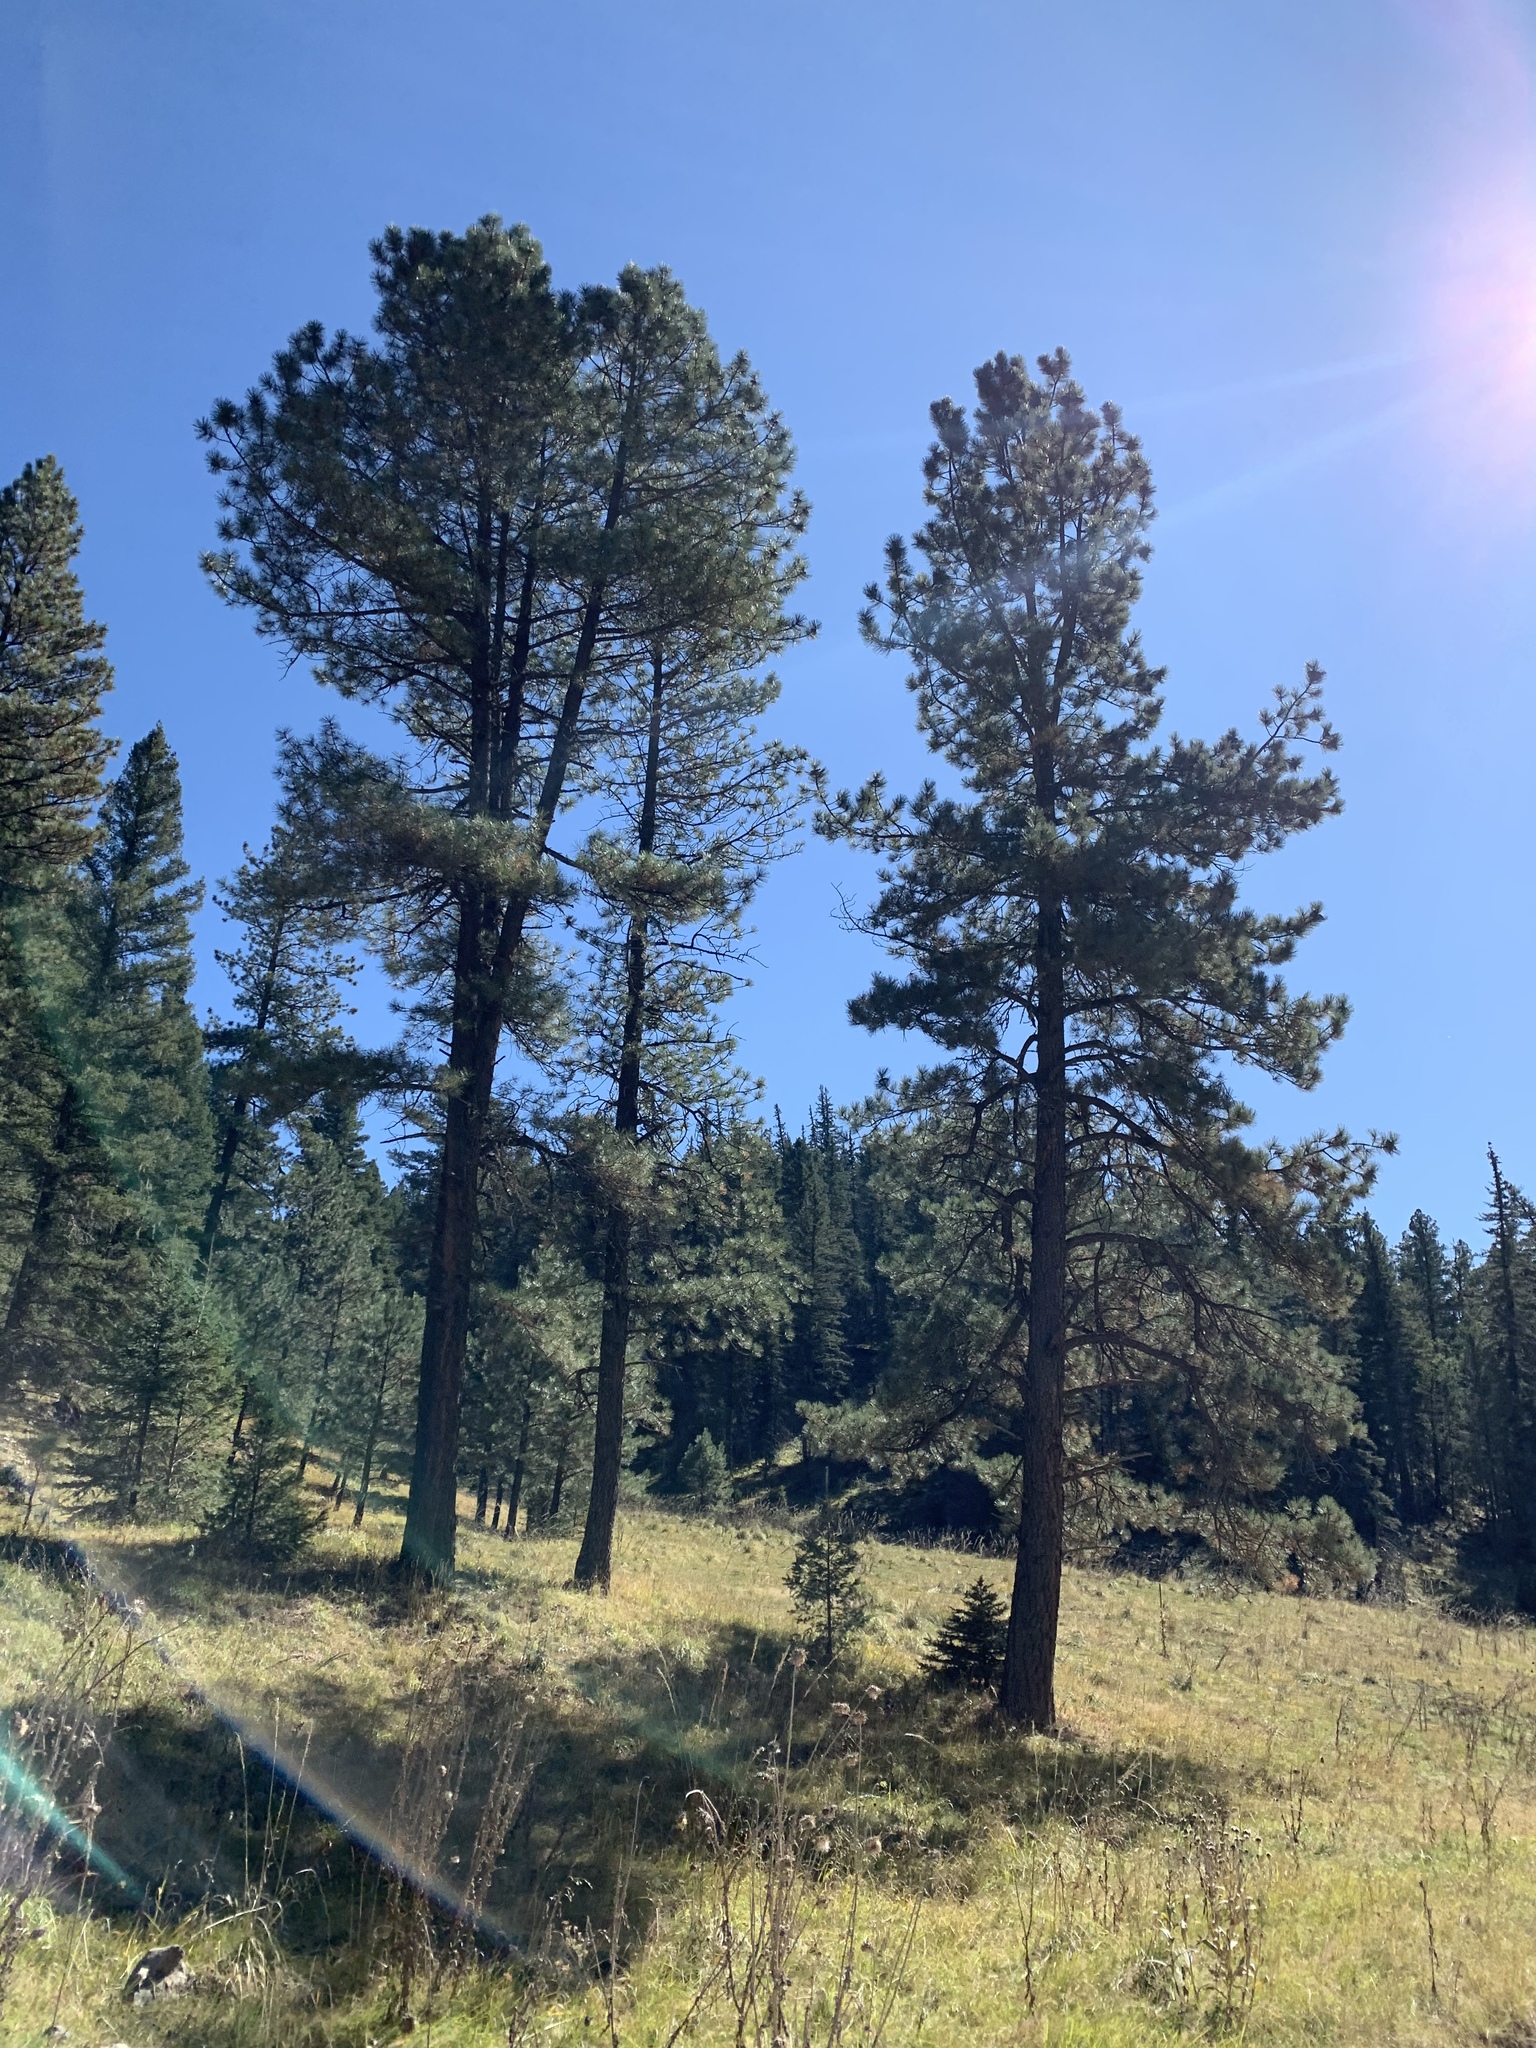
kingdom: Plantae
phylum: Tracheophyta
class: Pinopsida
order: Pinales
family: Pinaceae
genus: Pinus
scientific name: Pinus ponderosa
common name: Western yellow-pine
